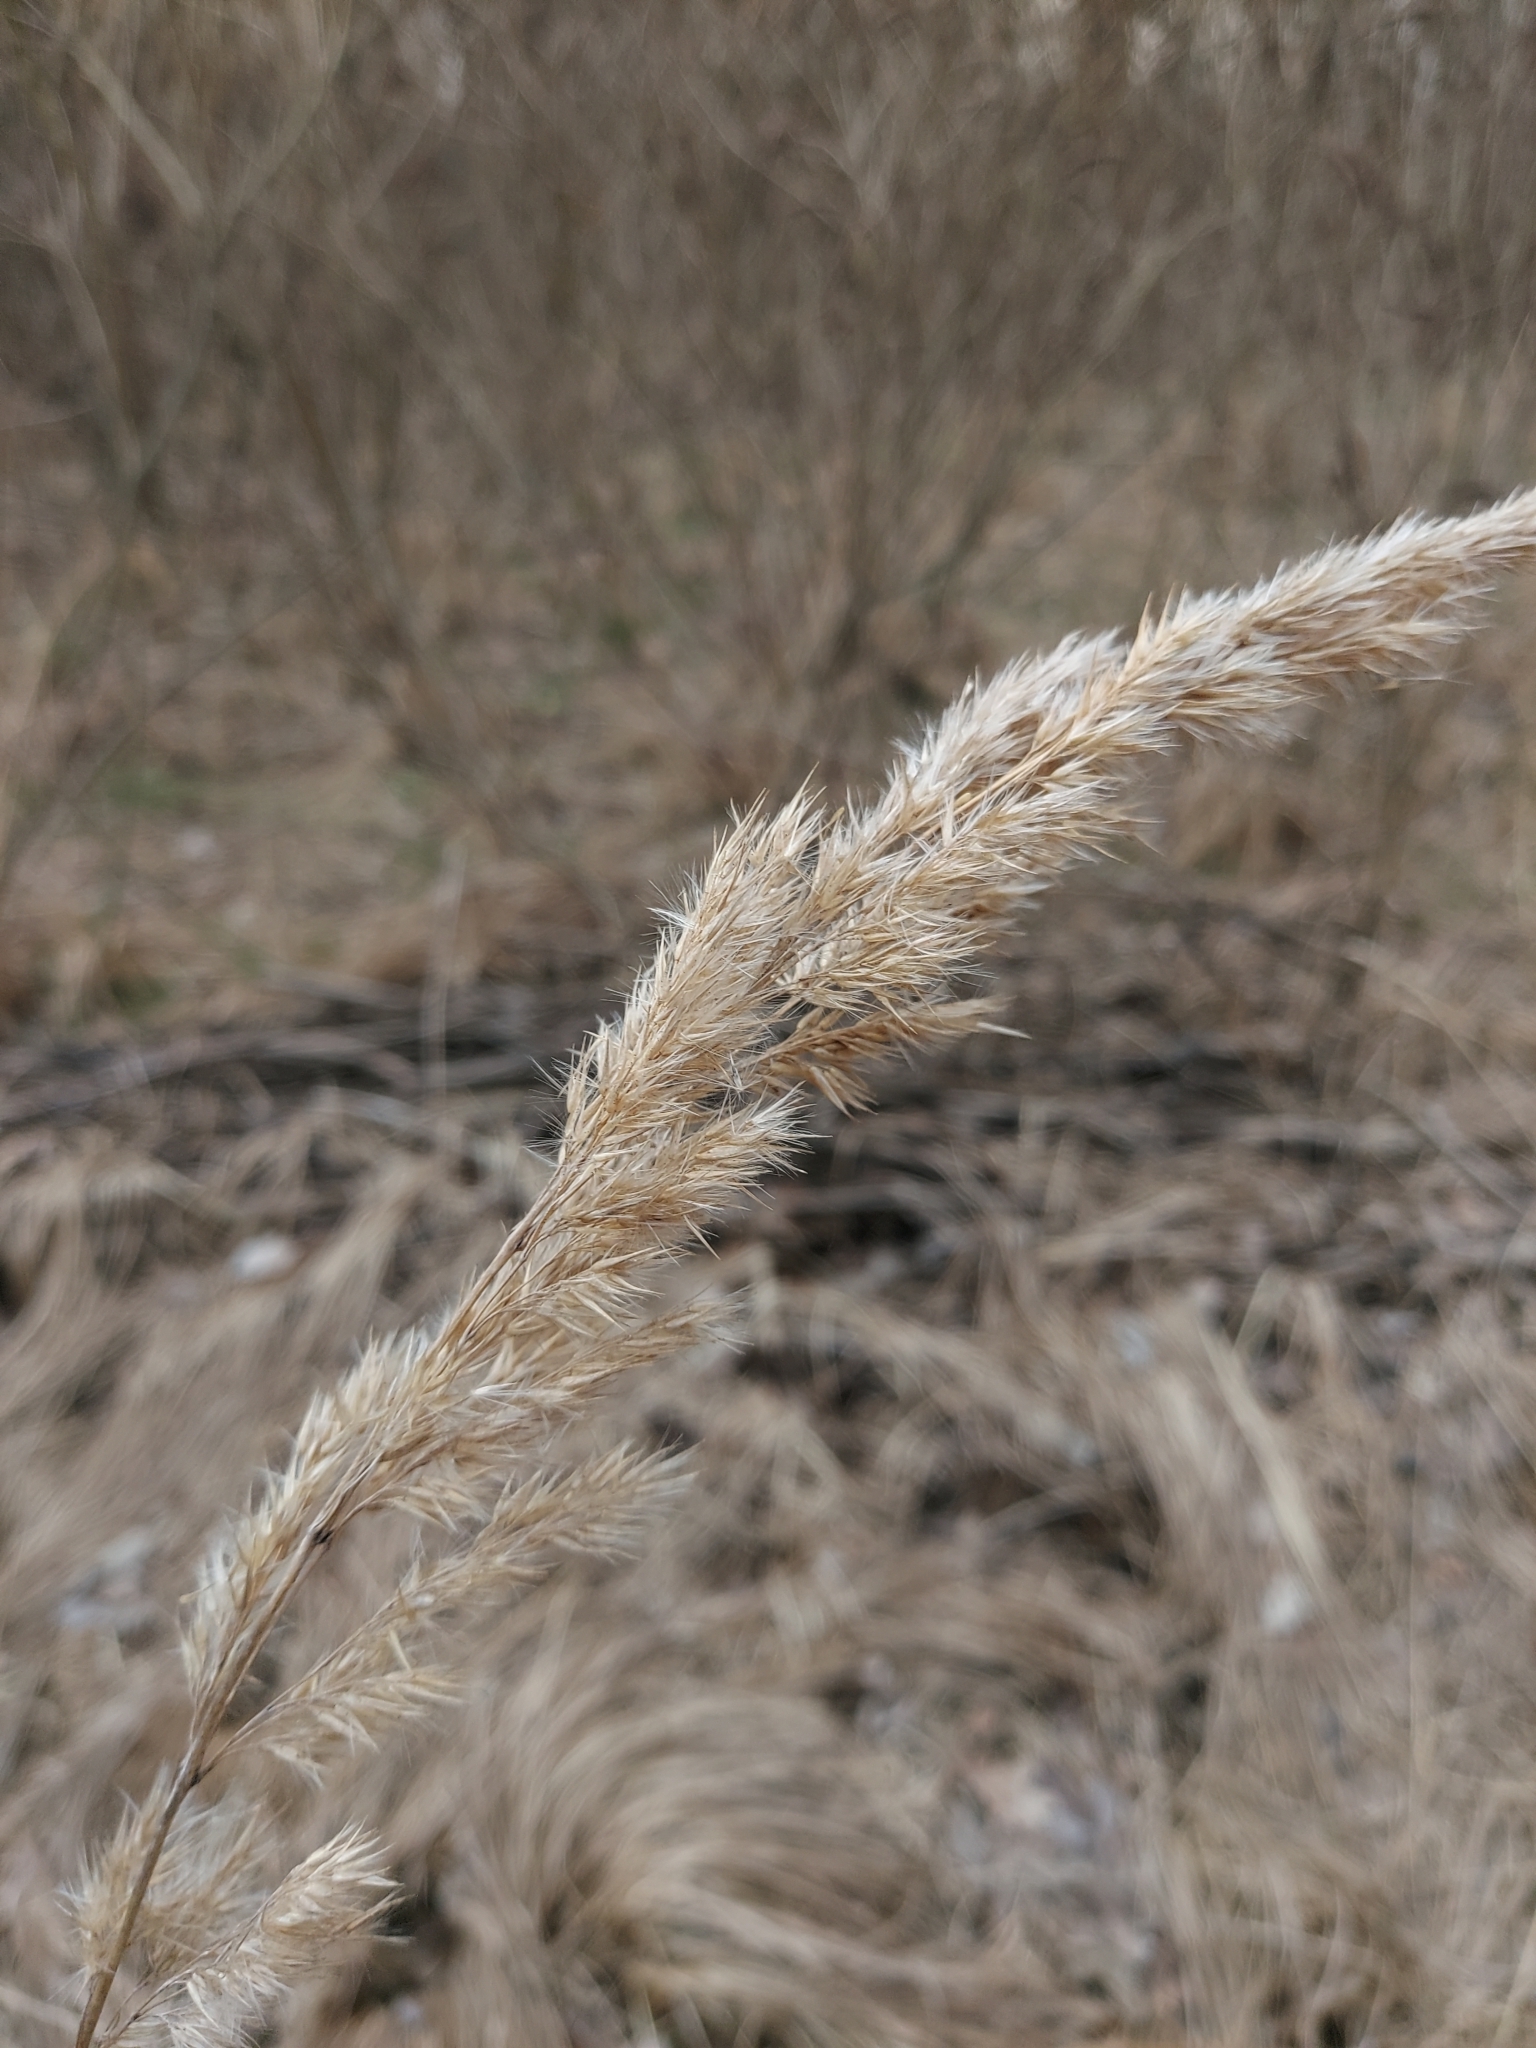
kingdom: Plantae
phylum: Tracheophyta
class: Liliopsida
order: Poales
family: Poaceae
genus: Calamagrostis
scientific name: Calamagrostis epigejos
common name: Wood small-reed
